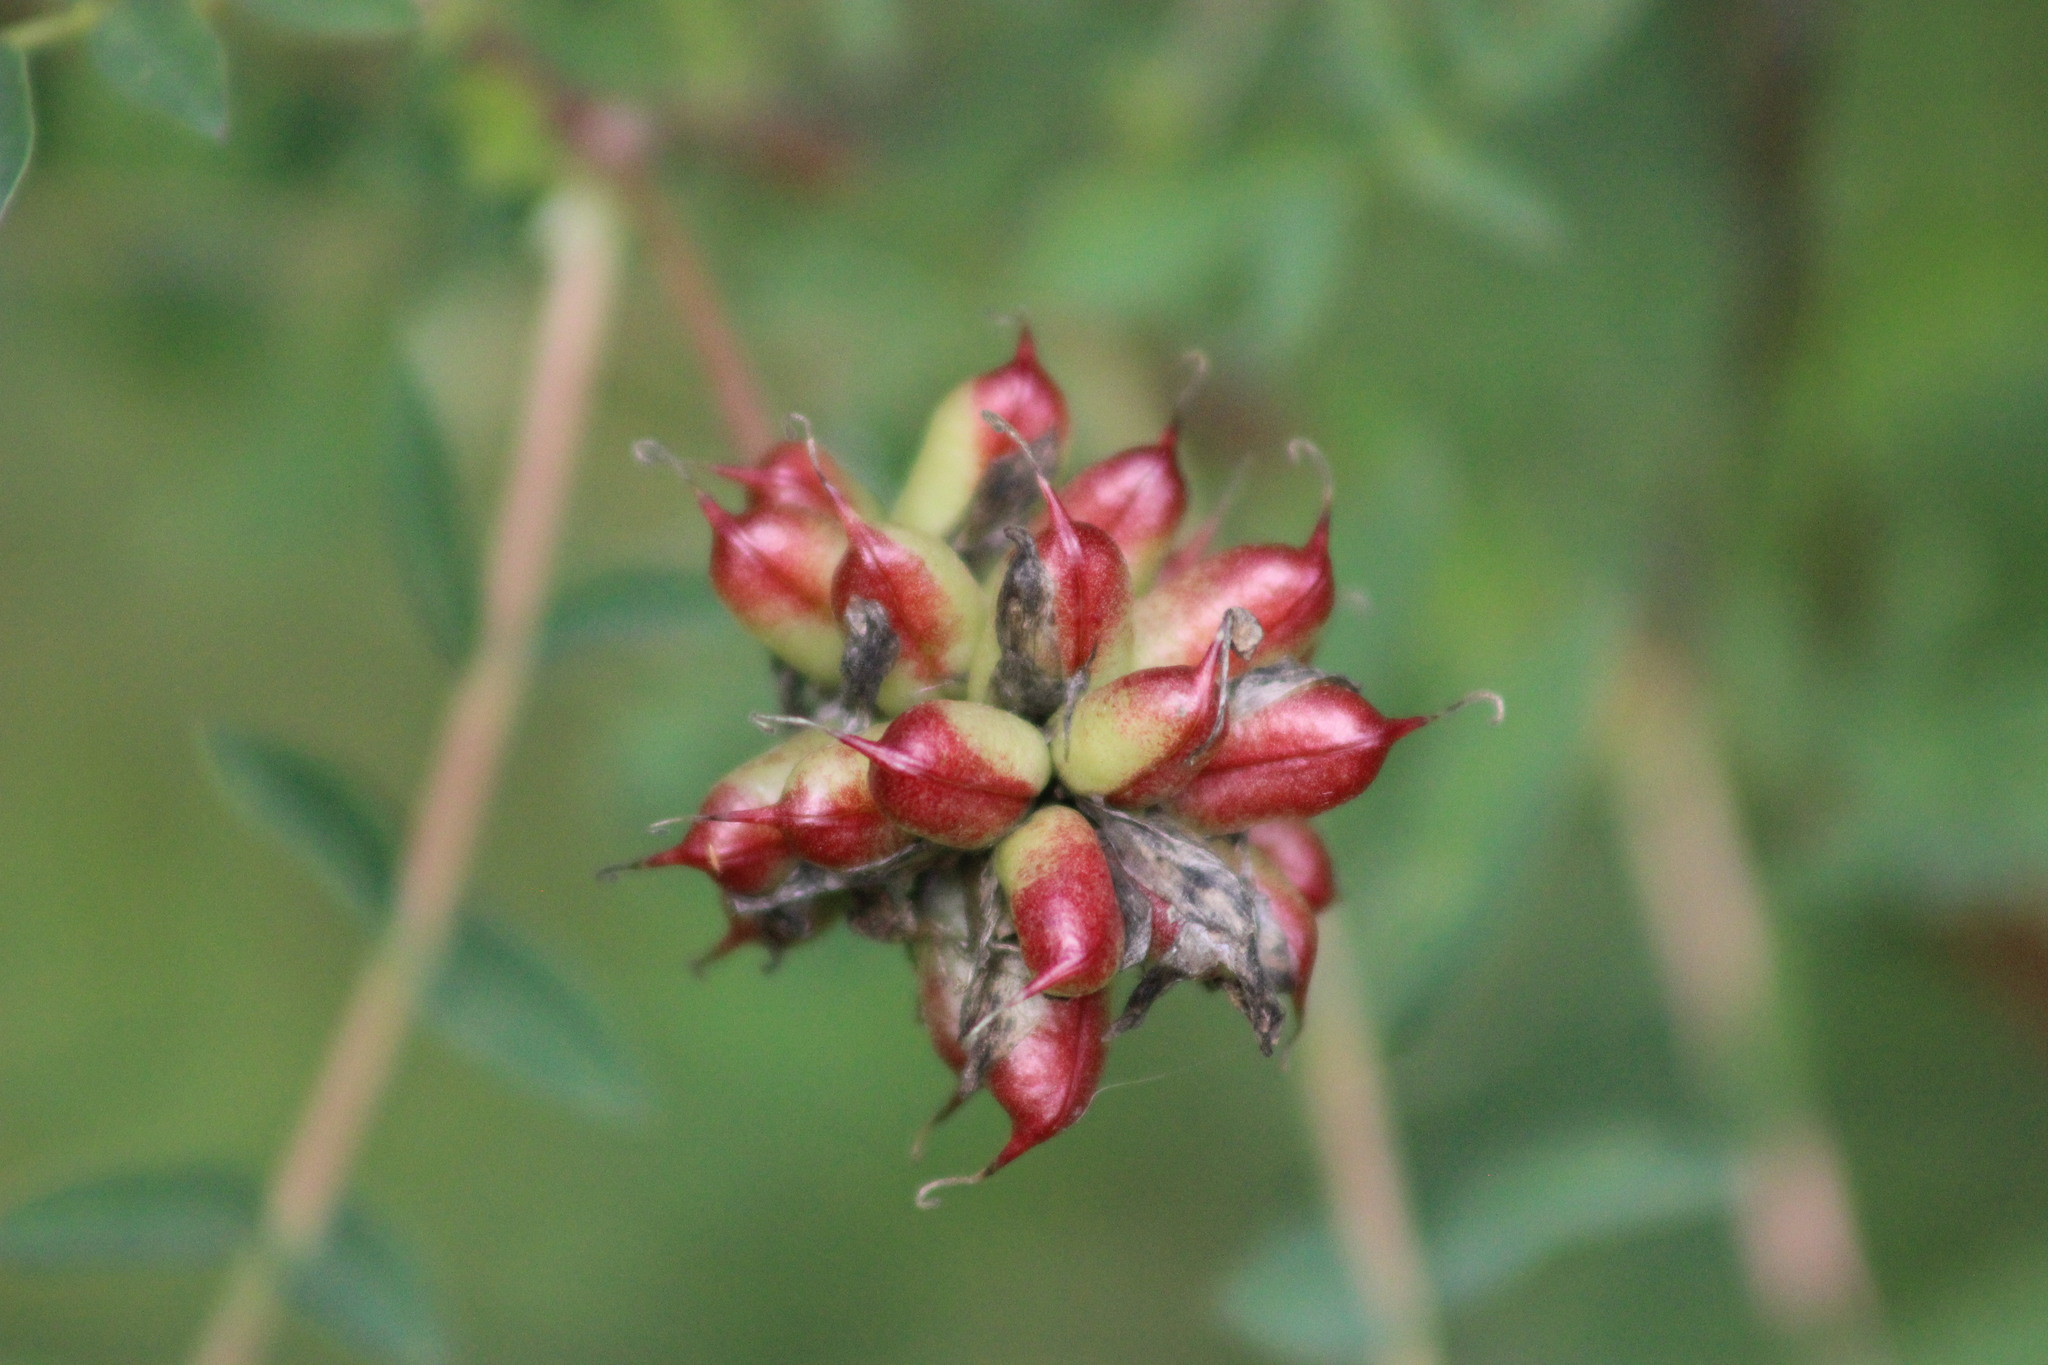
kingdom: Plantae
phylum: Tracheophyta
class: Magnoliopsida
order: Fabales
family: Fabaceae
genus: Astragalus
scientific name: Astragalus uliginosus
